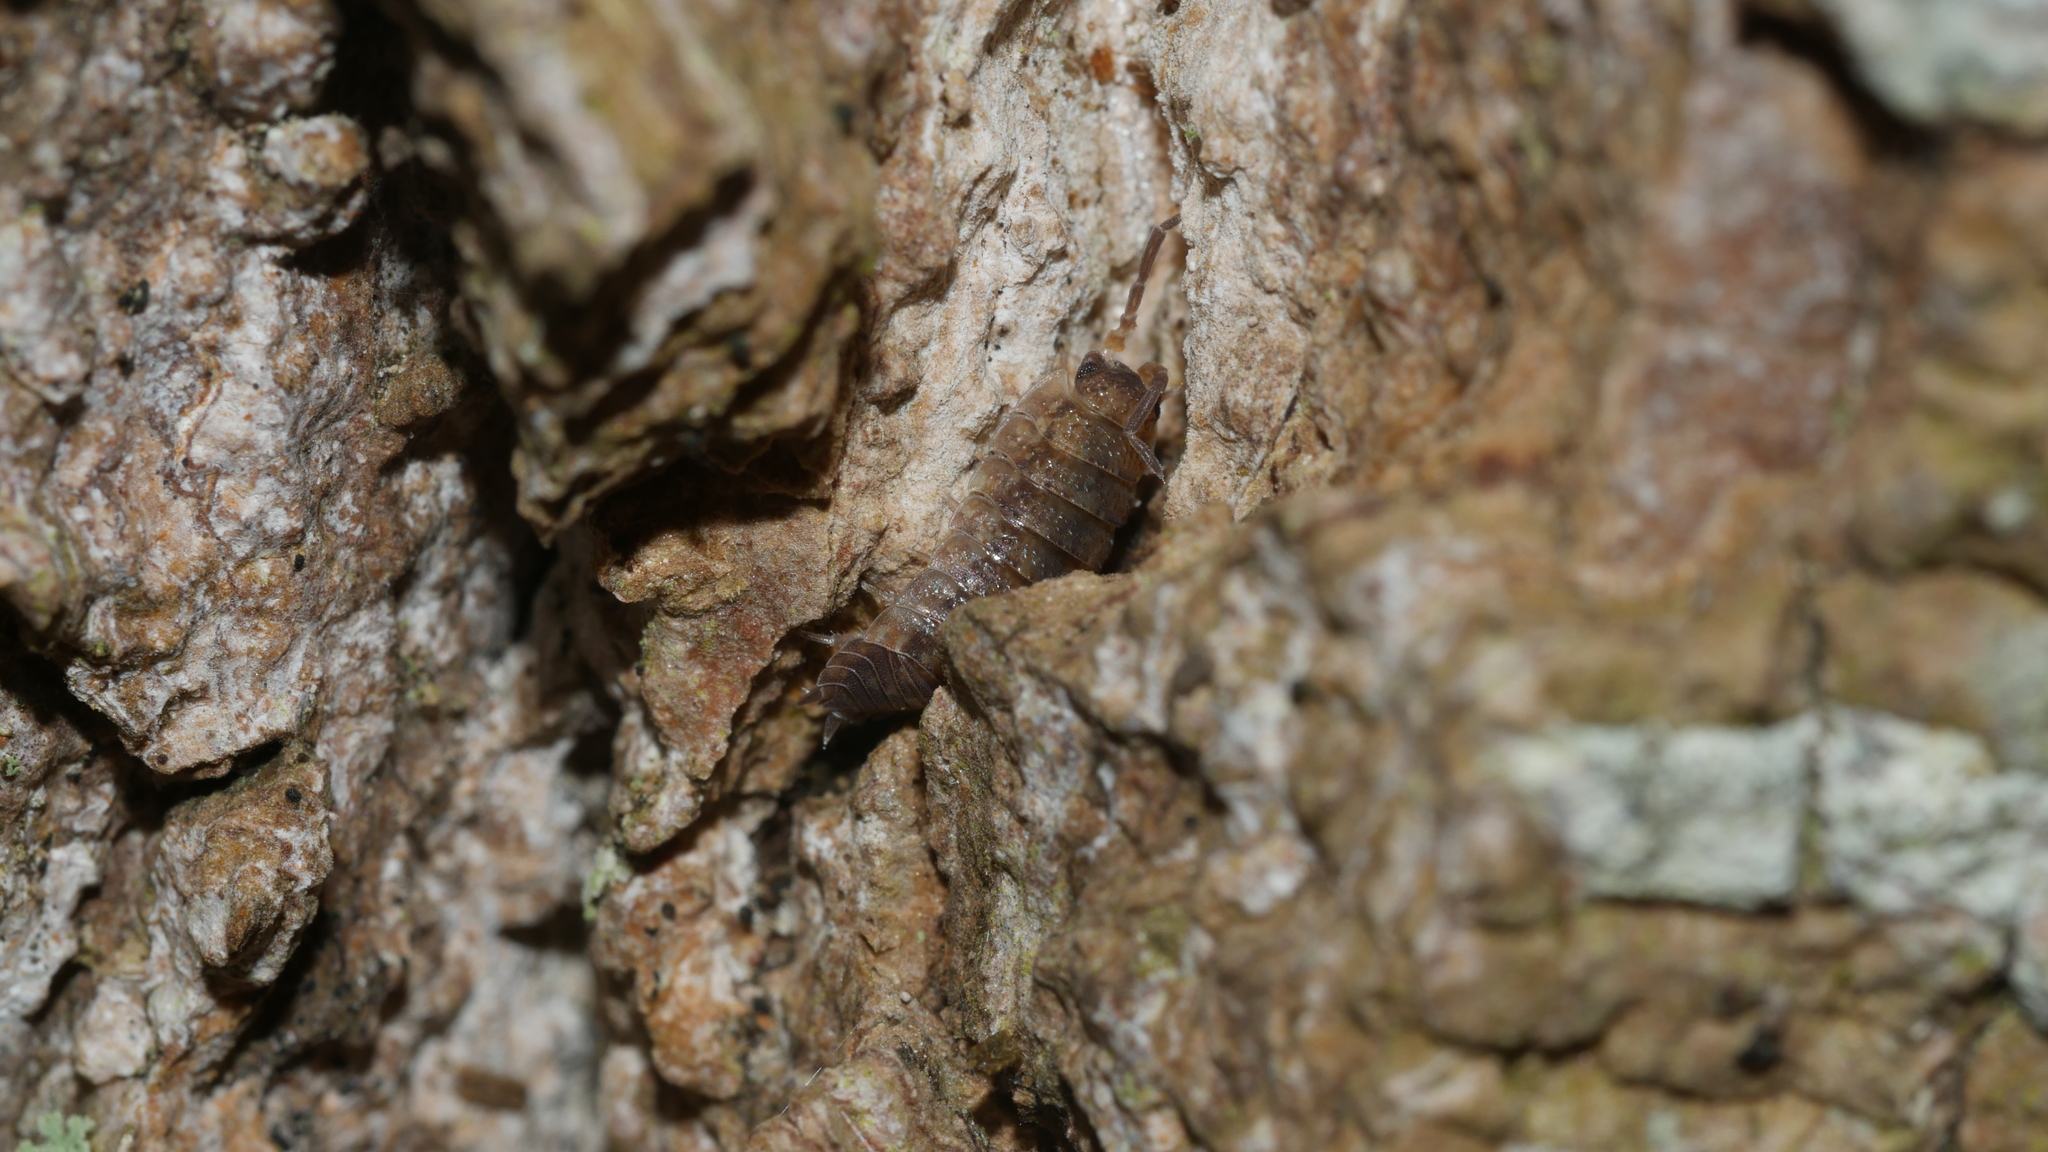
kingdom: Animalia
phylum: Arthropoda
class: Malacostraca
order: Isopoda
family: Porcellionidae
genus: Porcellio
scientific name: Porcellio scaber
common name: Common rough woodlouse
